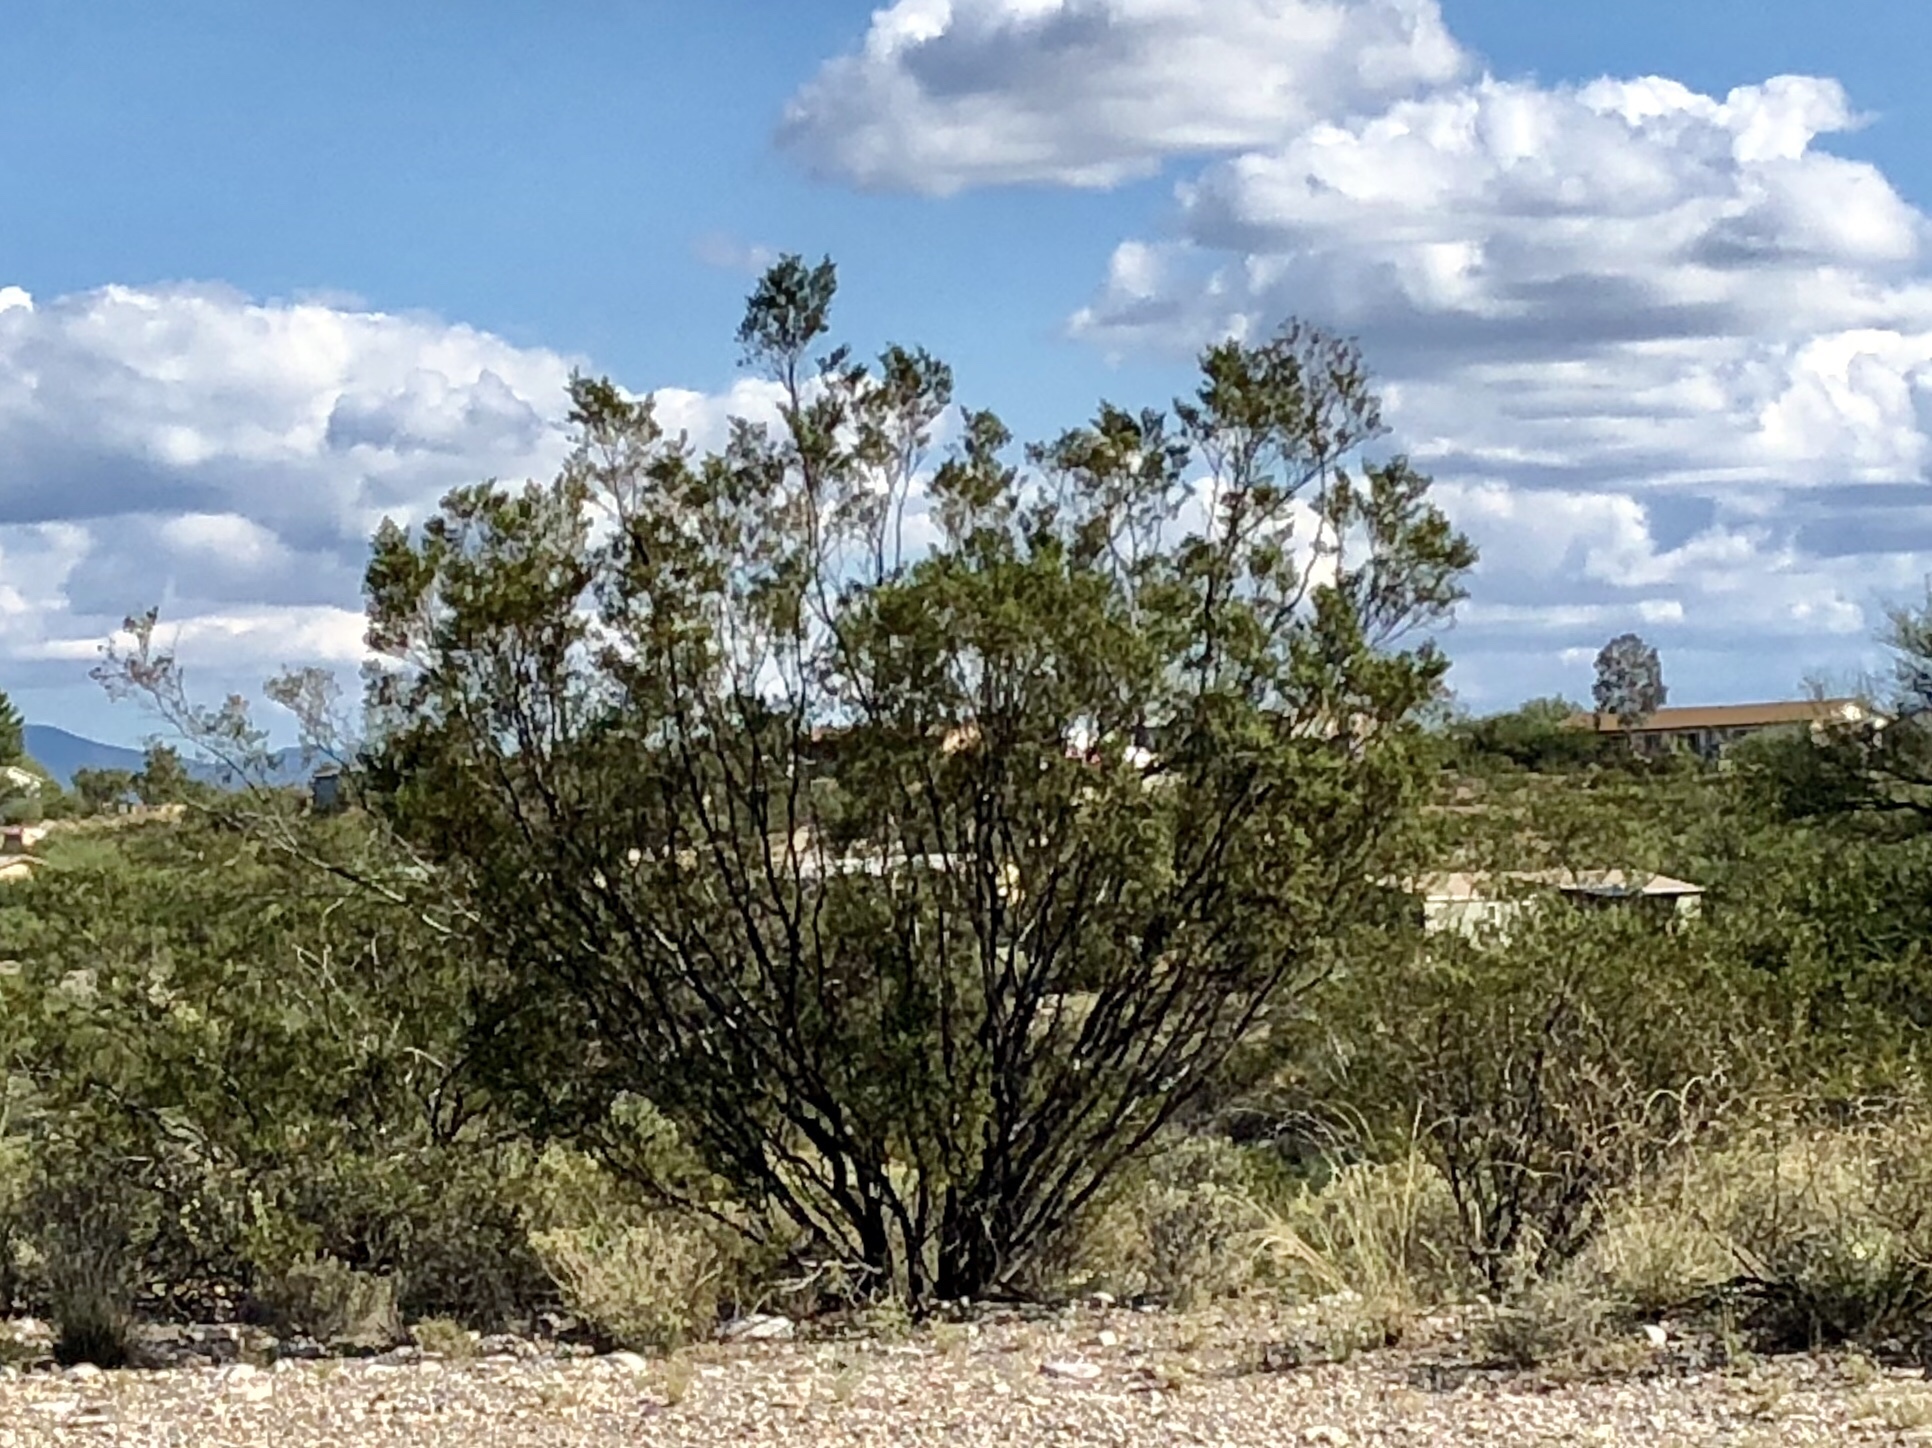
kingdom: Plantae
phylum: Tracheophyta
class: Magnoliopsida
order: Zygophyllales
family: Zygophyllaceae
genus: Larrea
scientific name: Larrea tridentata
